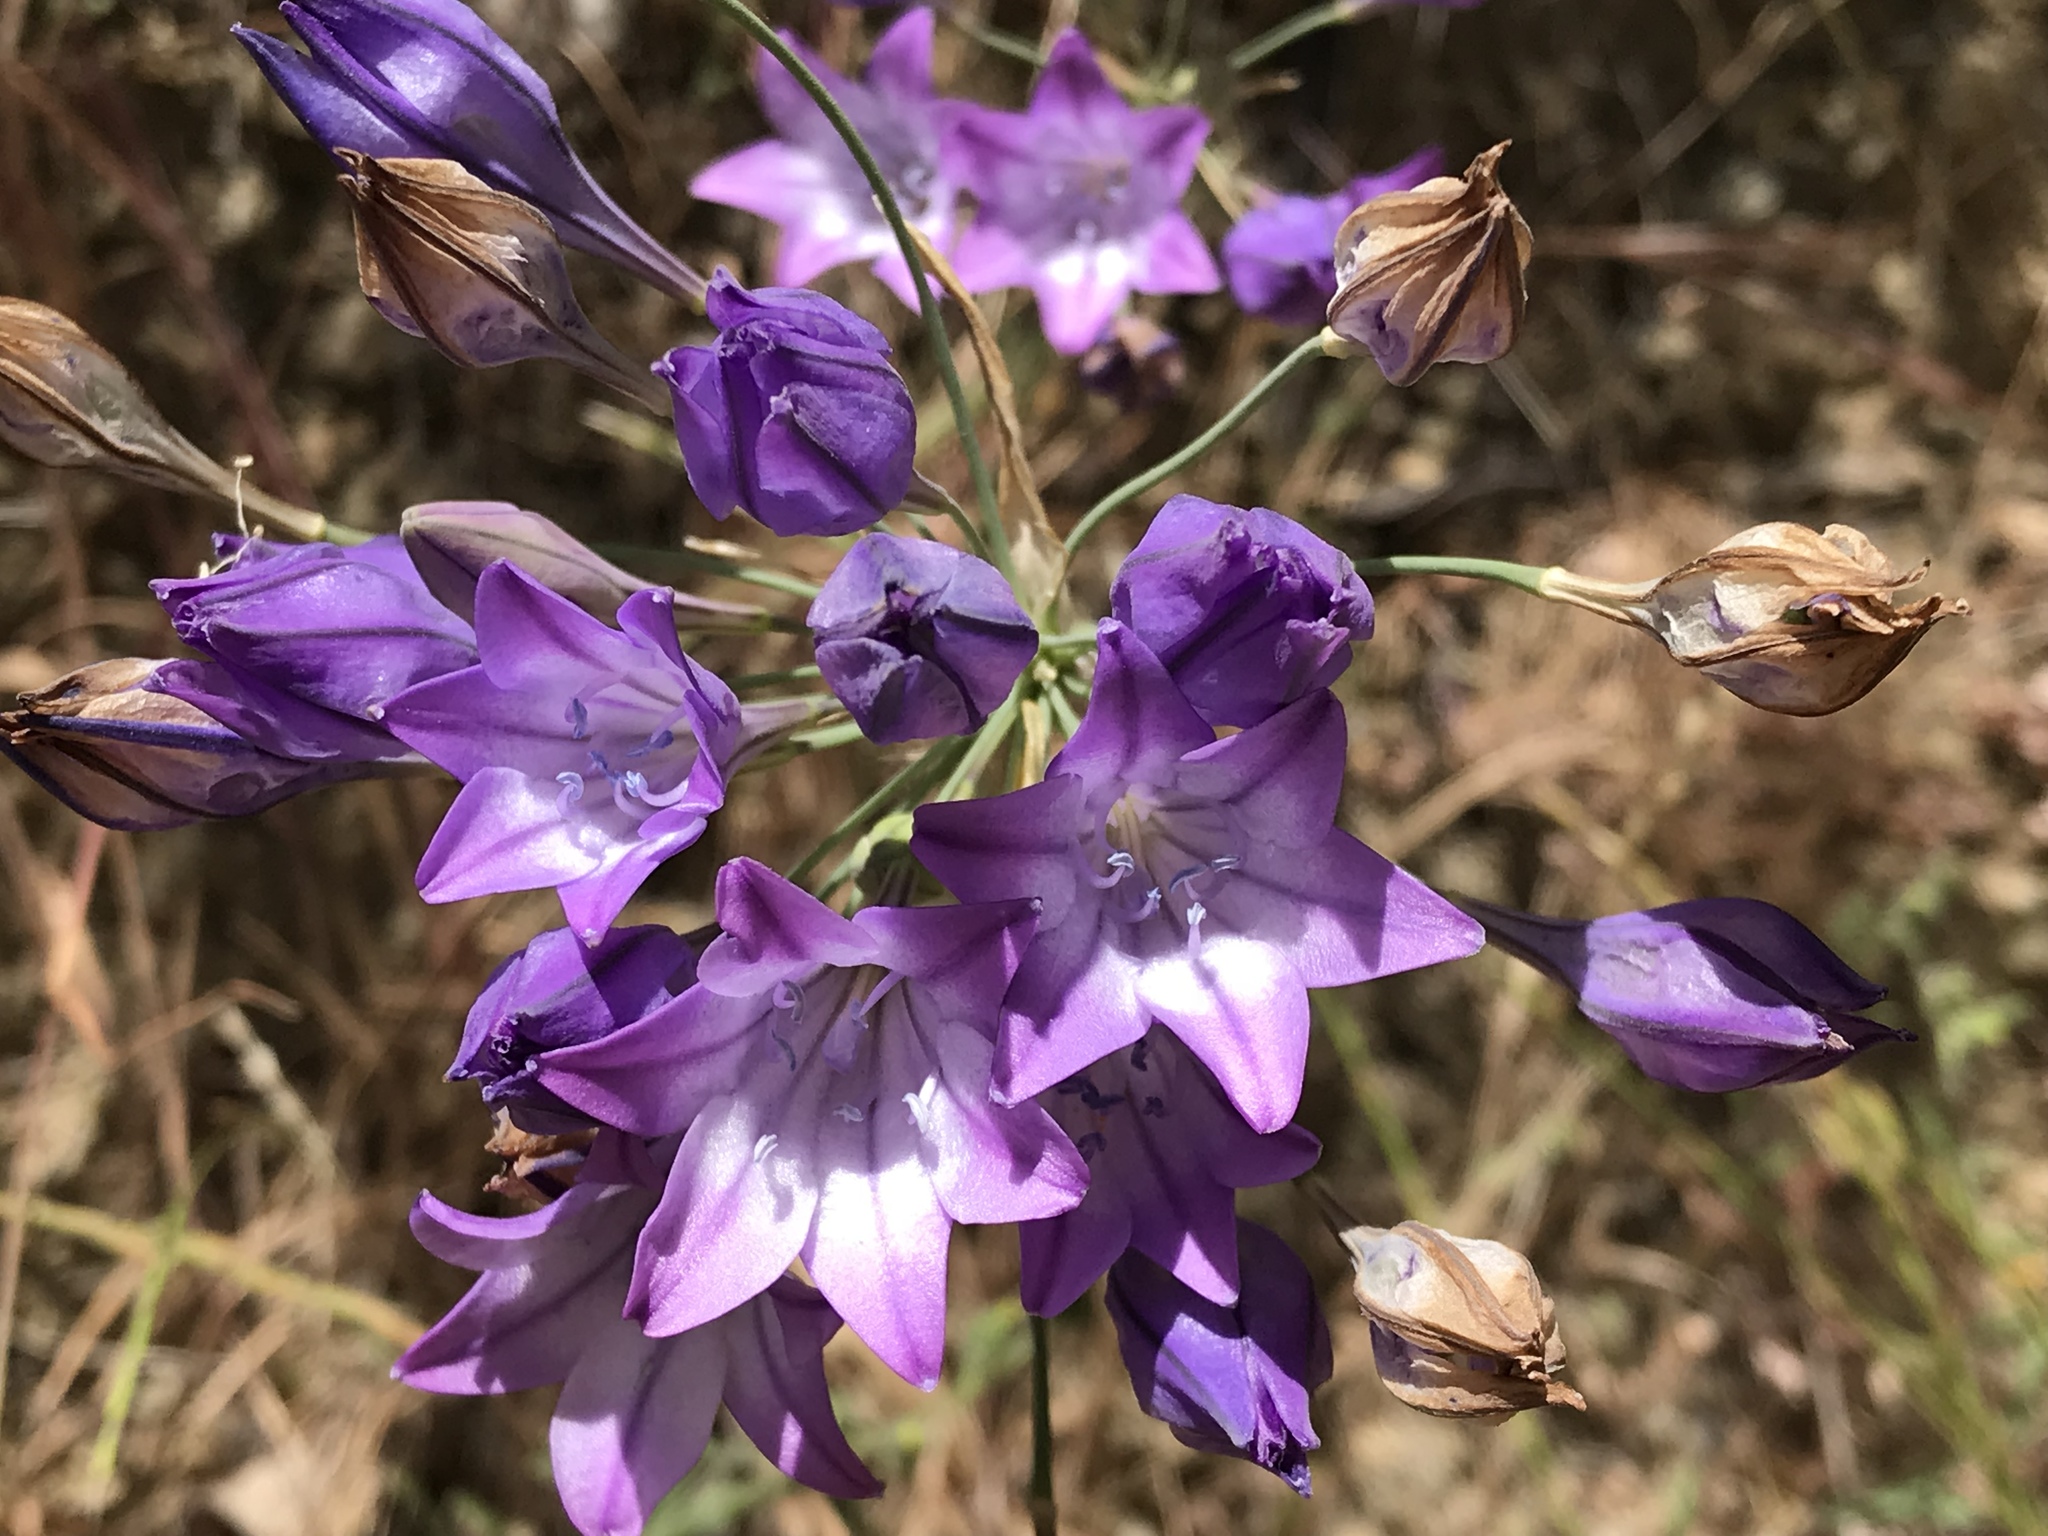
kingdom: Plantae
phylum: Tracheophyta
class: Liliopsida
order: Asparagales
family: Asparagaceae
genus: Triteleia
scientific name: Triteleia laxa
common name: Triplet-lily
